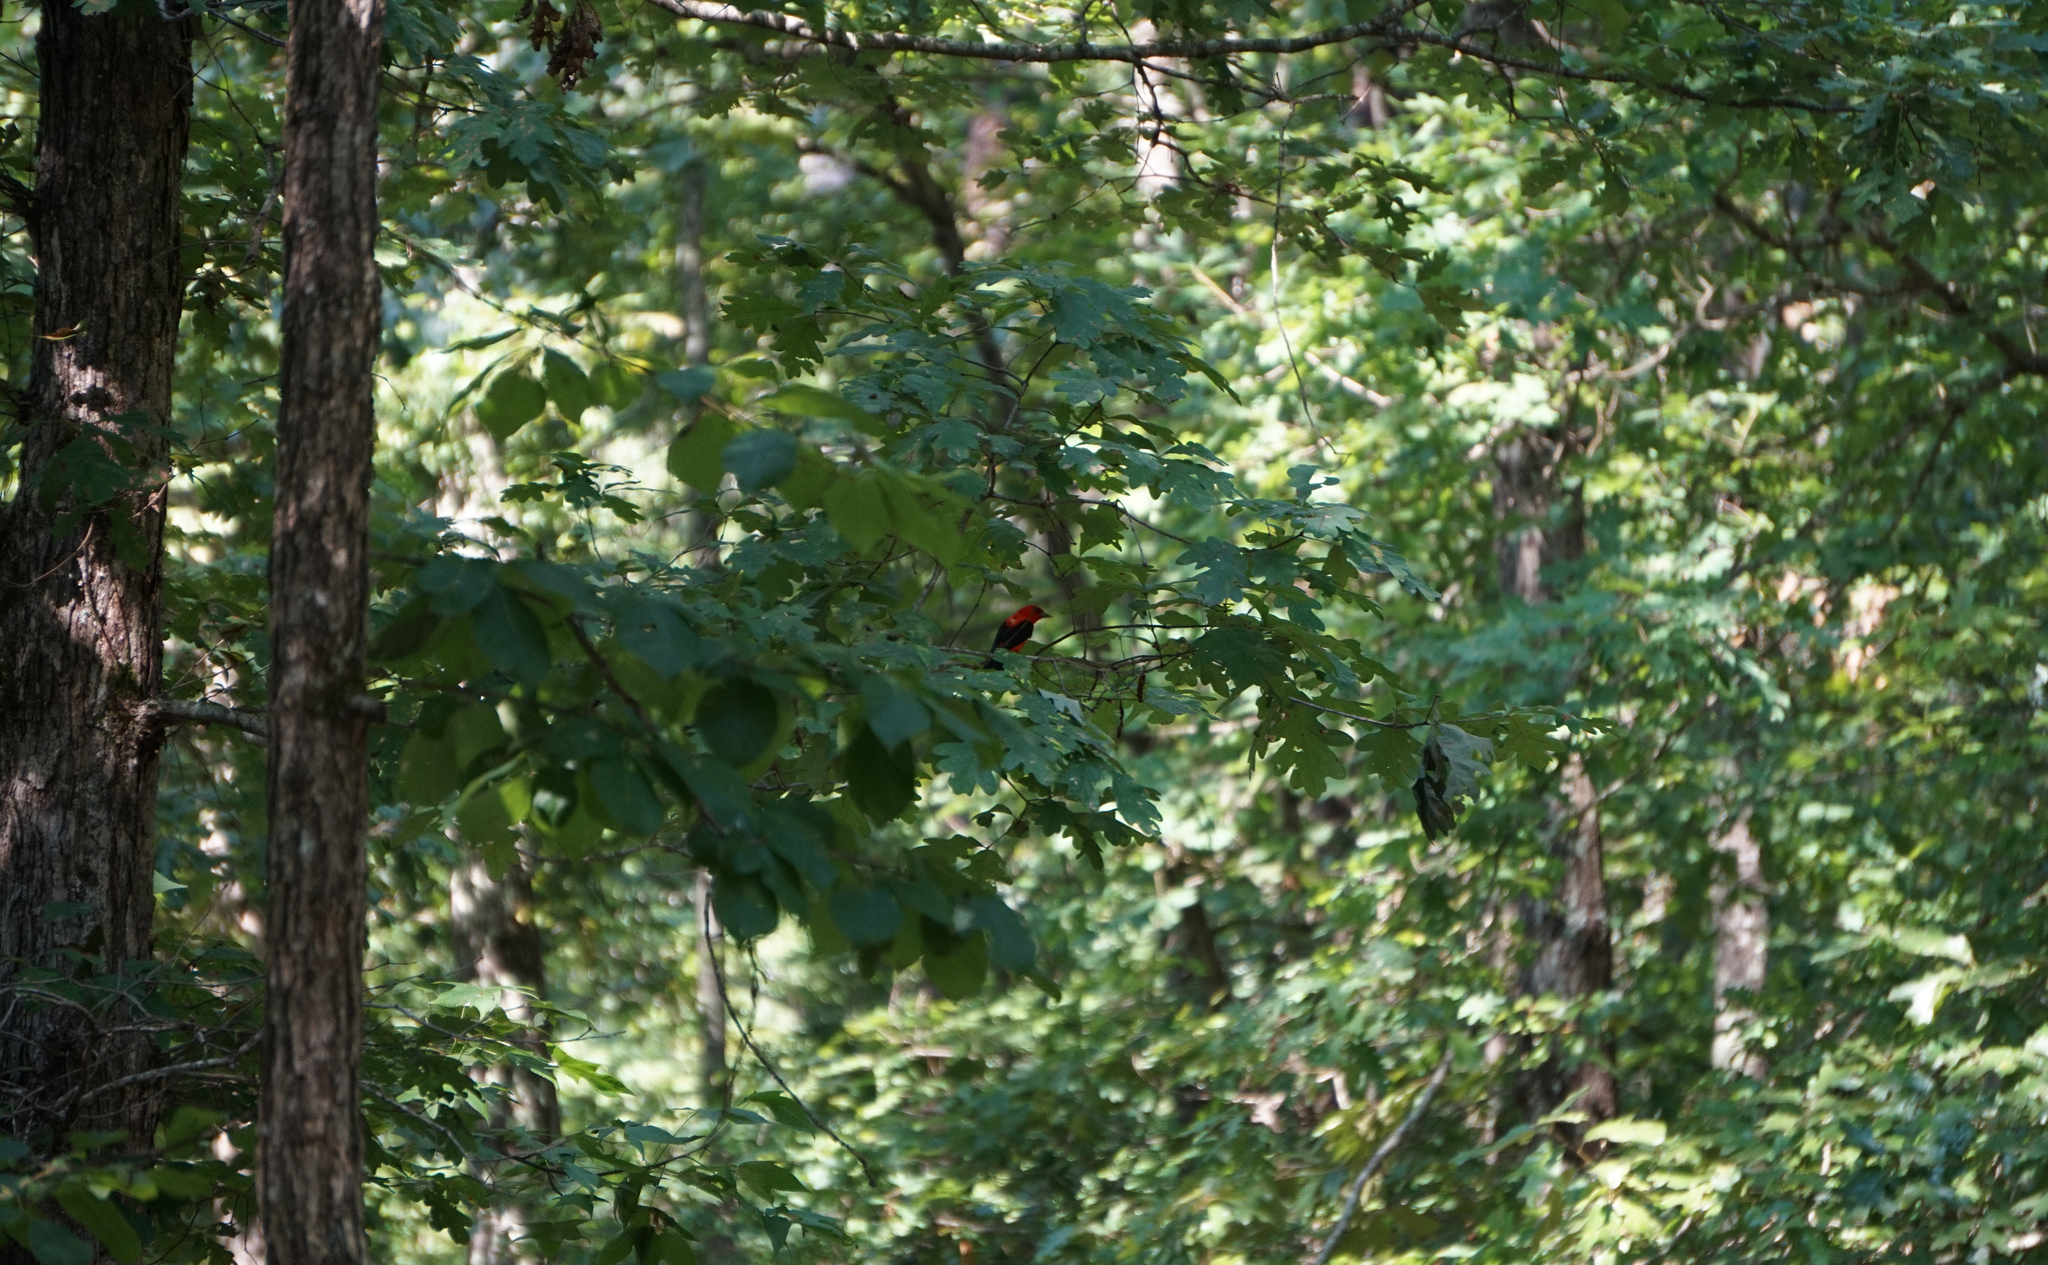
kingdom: Animalia
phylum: Chordata
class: Aves
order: Passeriformes
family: Cardinalidae
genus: Piranga
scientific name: Piranga olivacea
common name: Scarlet tanager
